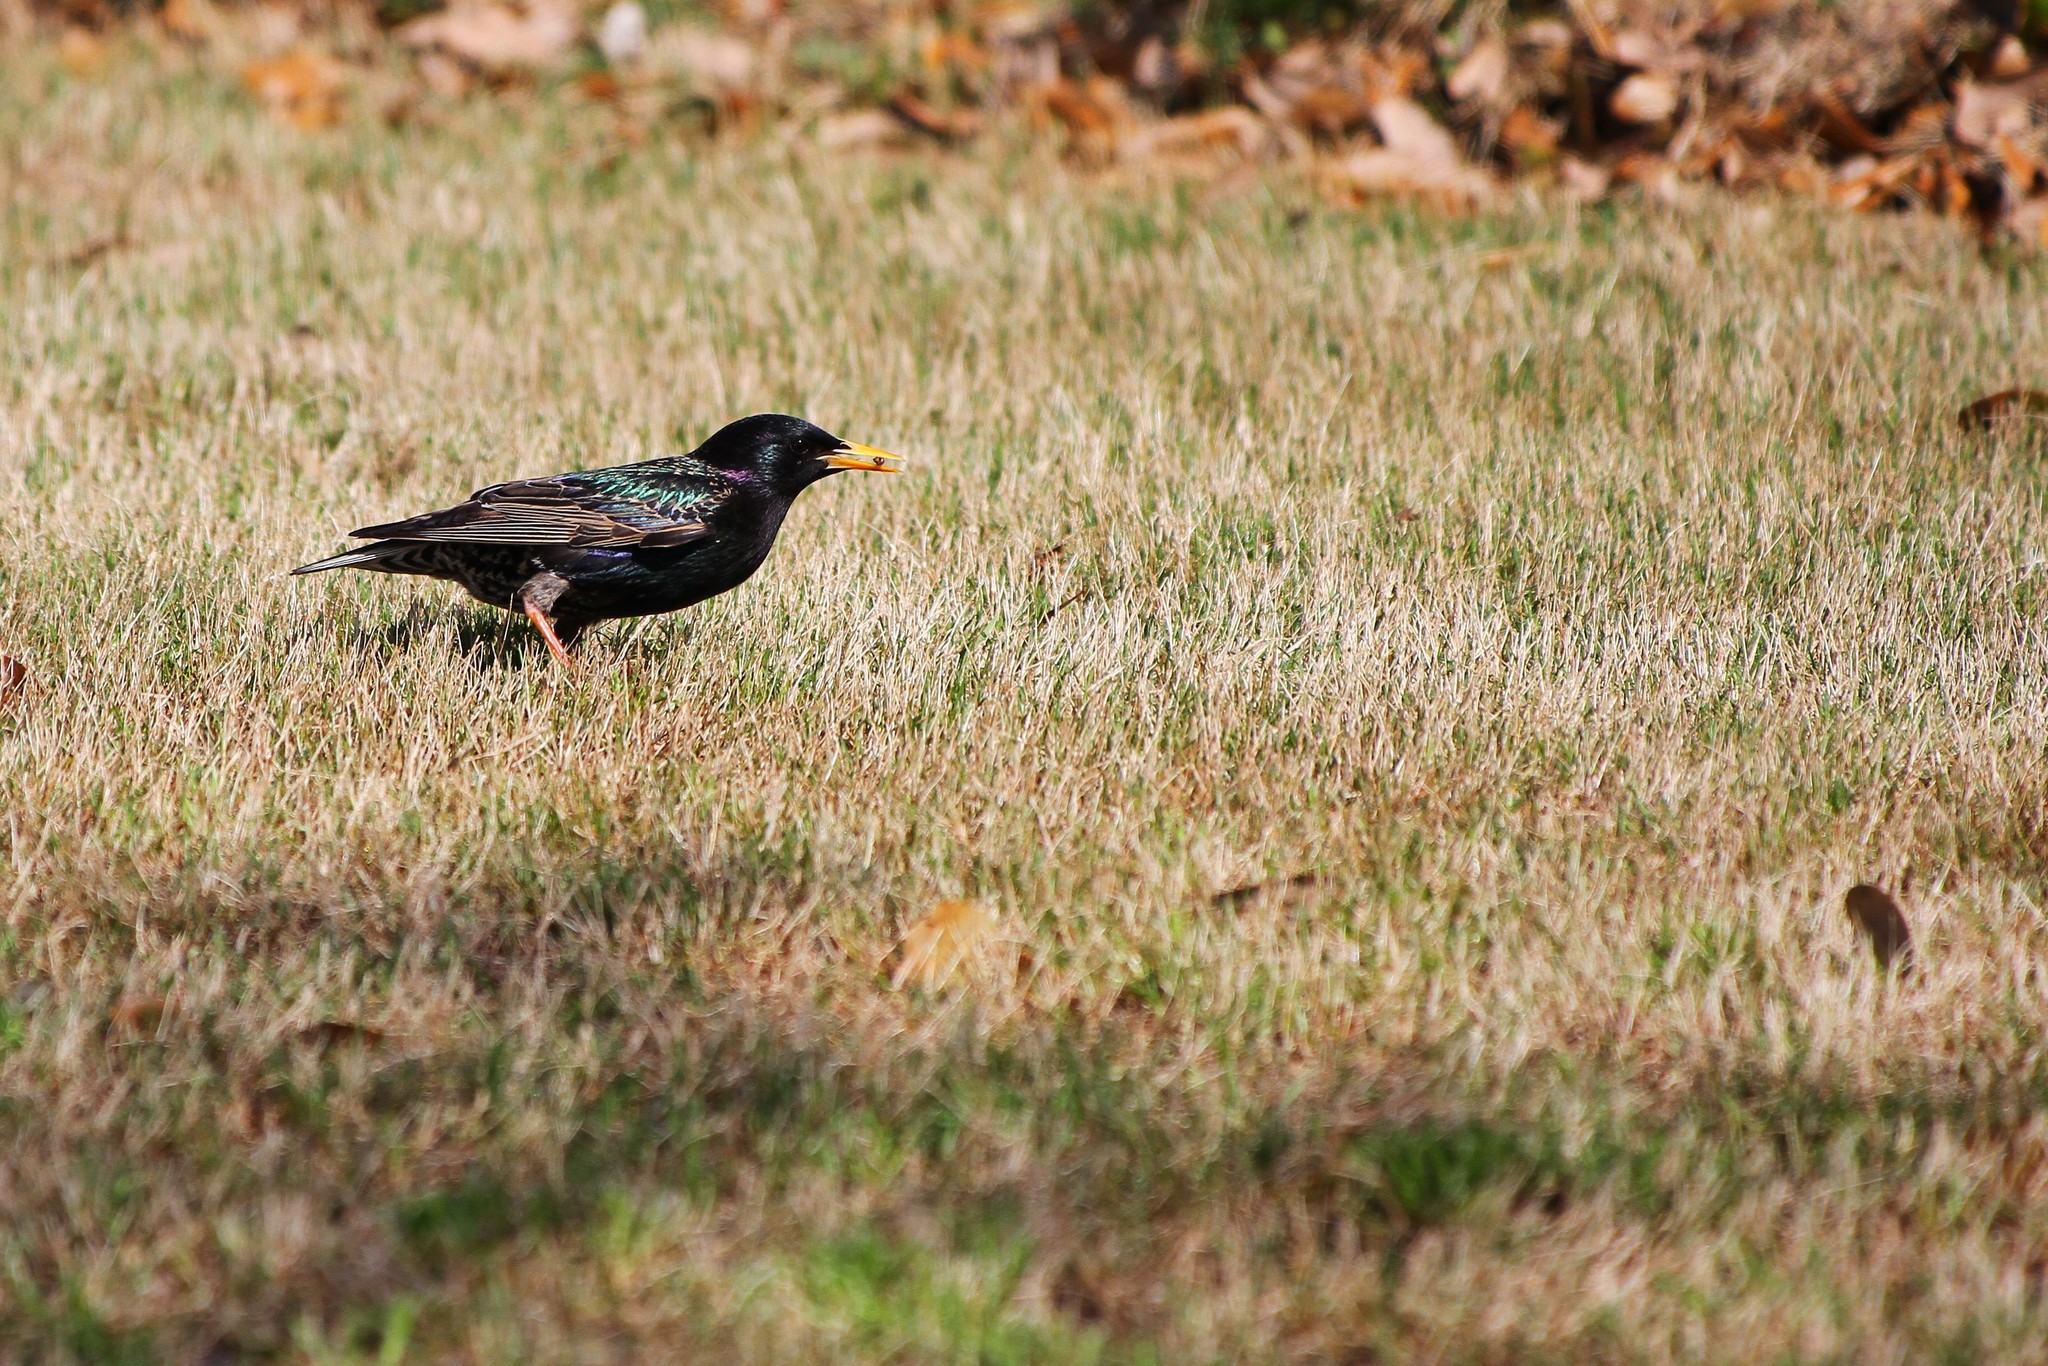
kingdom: Animalia
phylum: Chordata
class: Aves
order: Passeriformes
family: Sturnidae
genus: Sturnus
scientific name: Sturnus vulgaris
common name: Common starling
